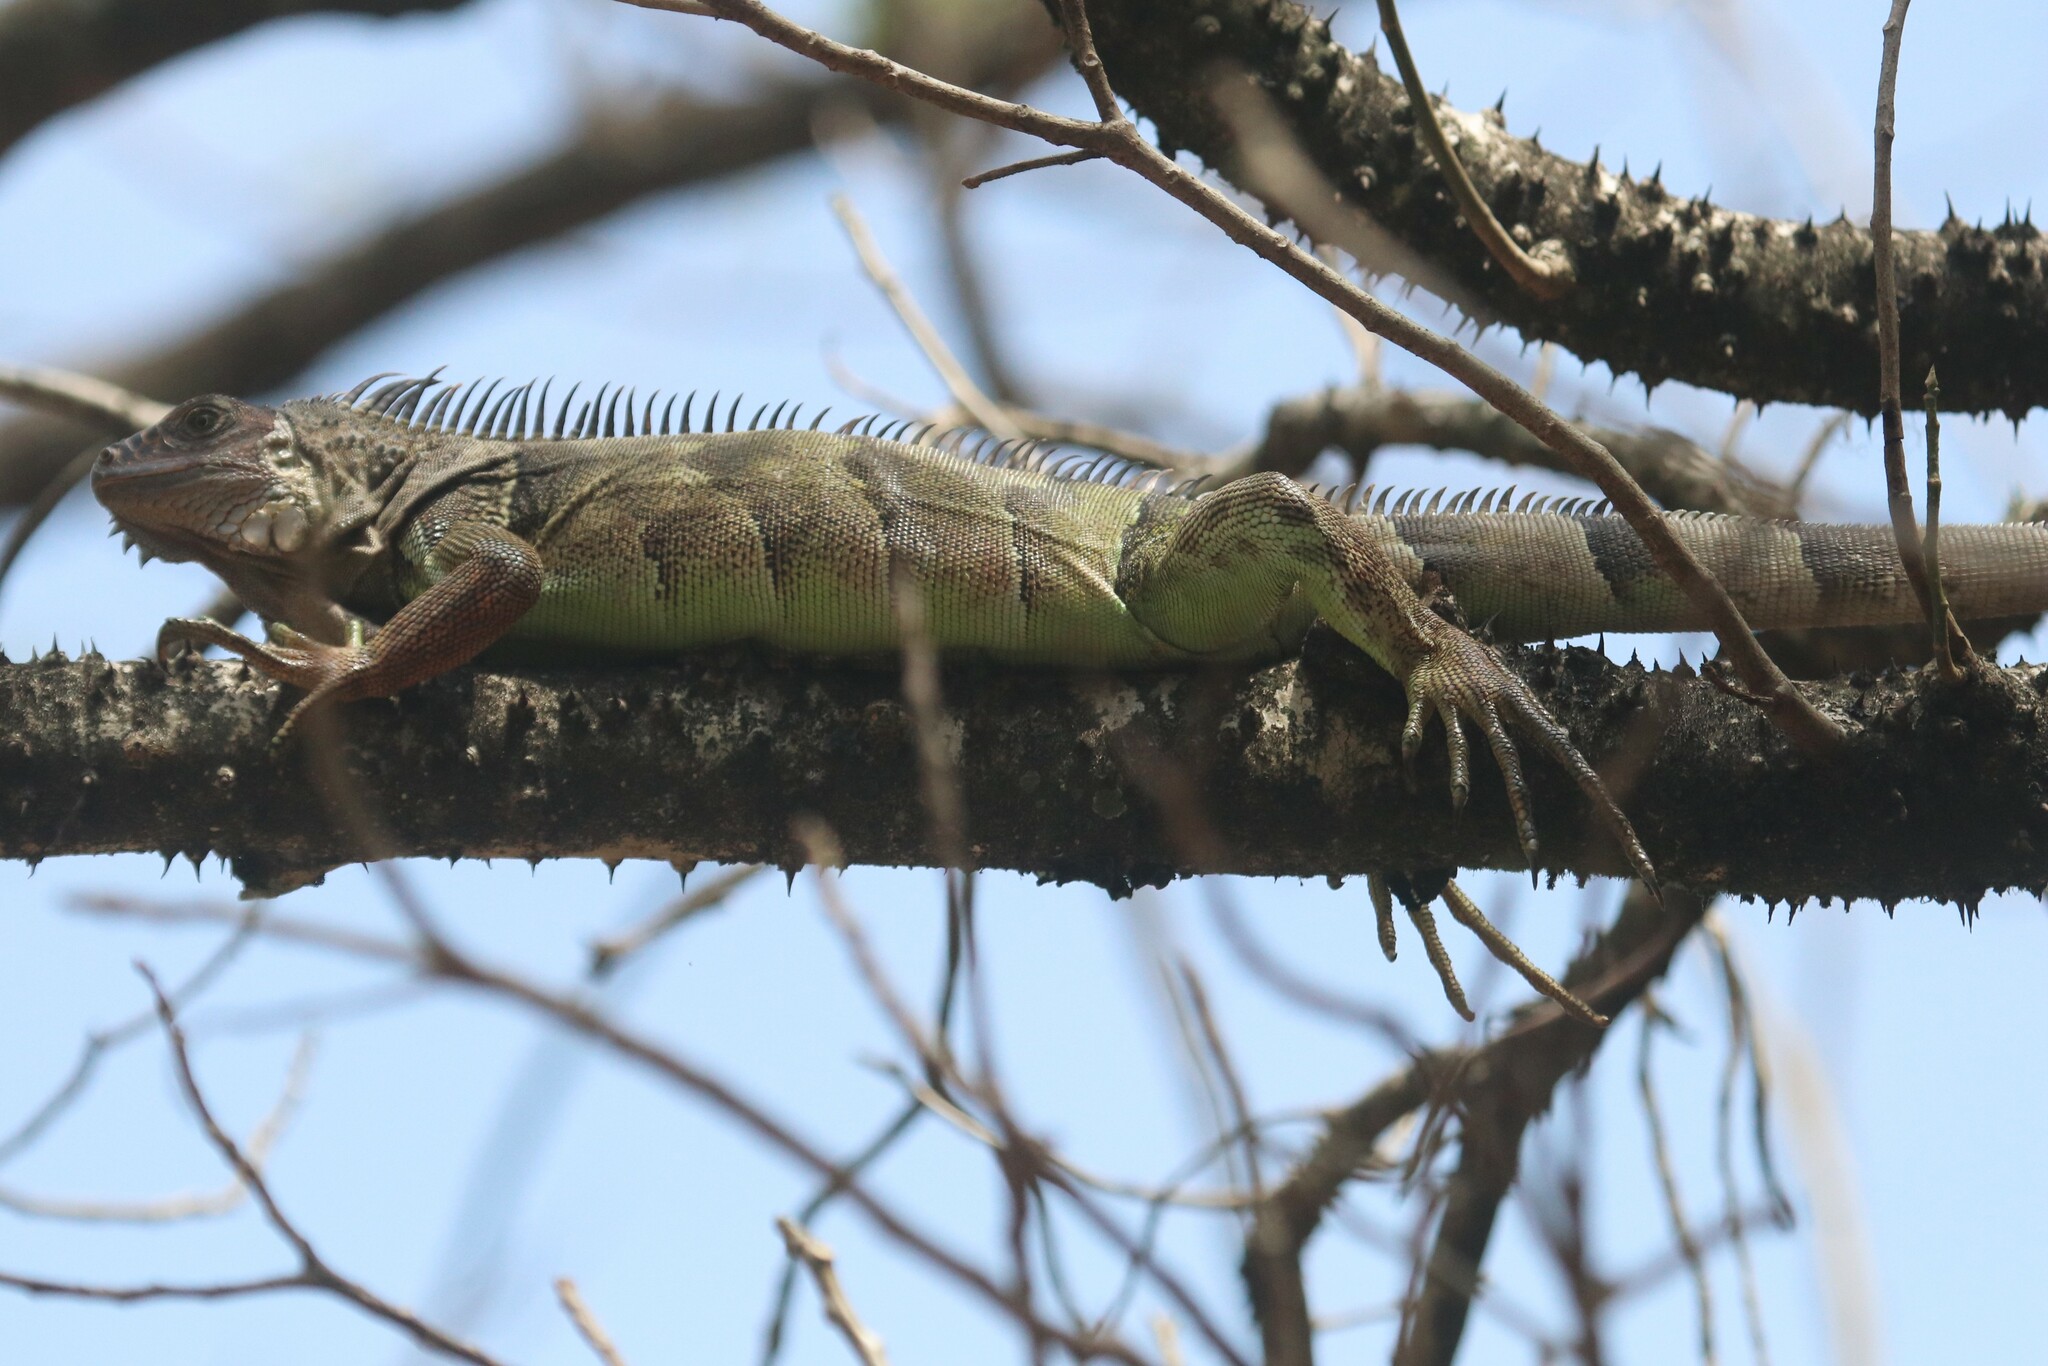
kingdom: Animalia
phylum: Chordata
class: Squamata
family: Iguanidae
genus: Iguana
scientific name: Iguana iguana
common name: Green iguana
